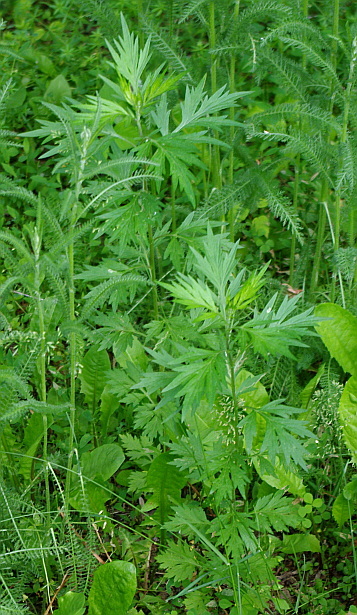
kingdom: Plantae
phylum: Tracheophyta
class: Magnoliopsida
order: Asterales
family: Asteraceae
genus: Artemisia
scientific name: Artemisia vulgaris
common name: Mugwort
